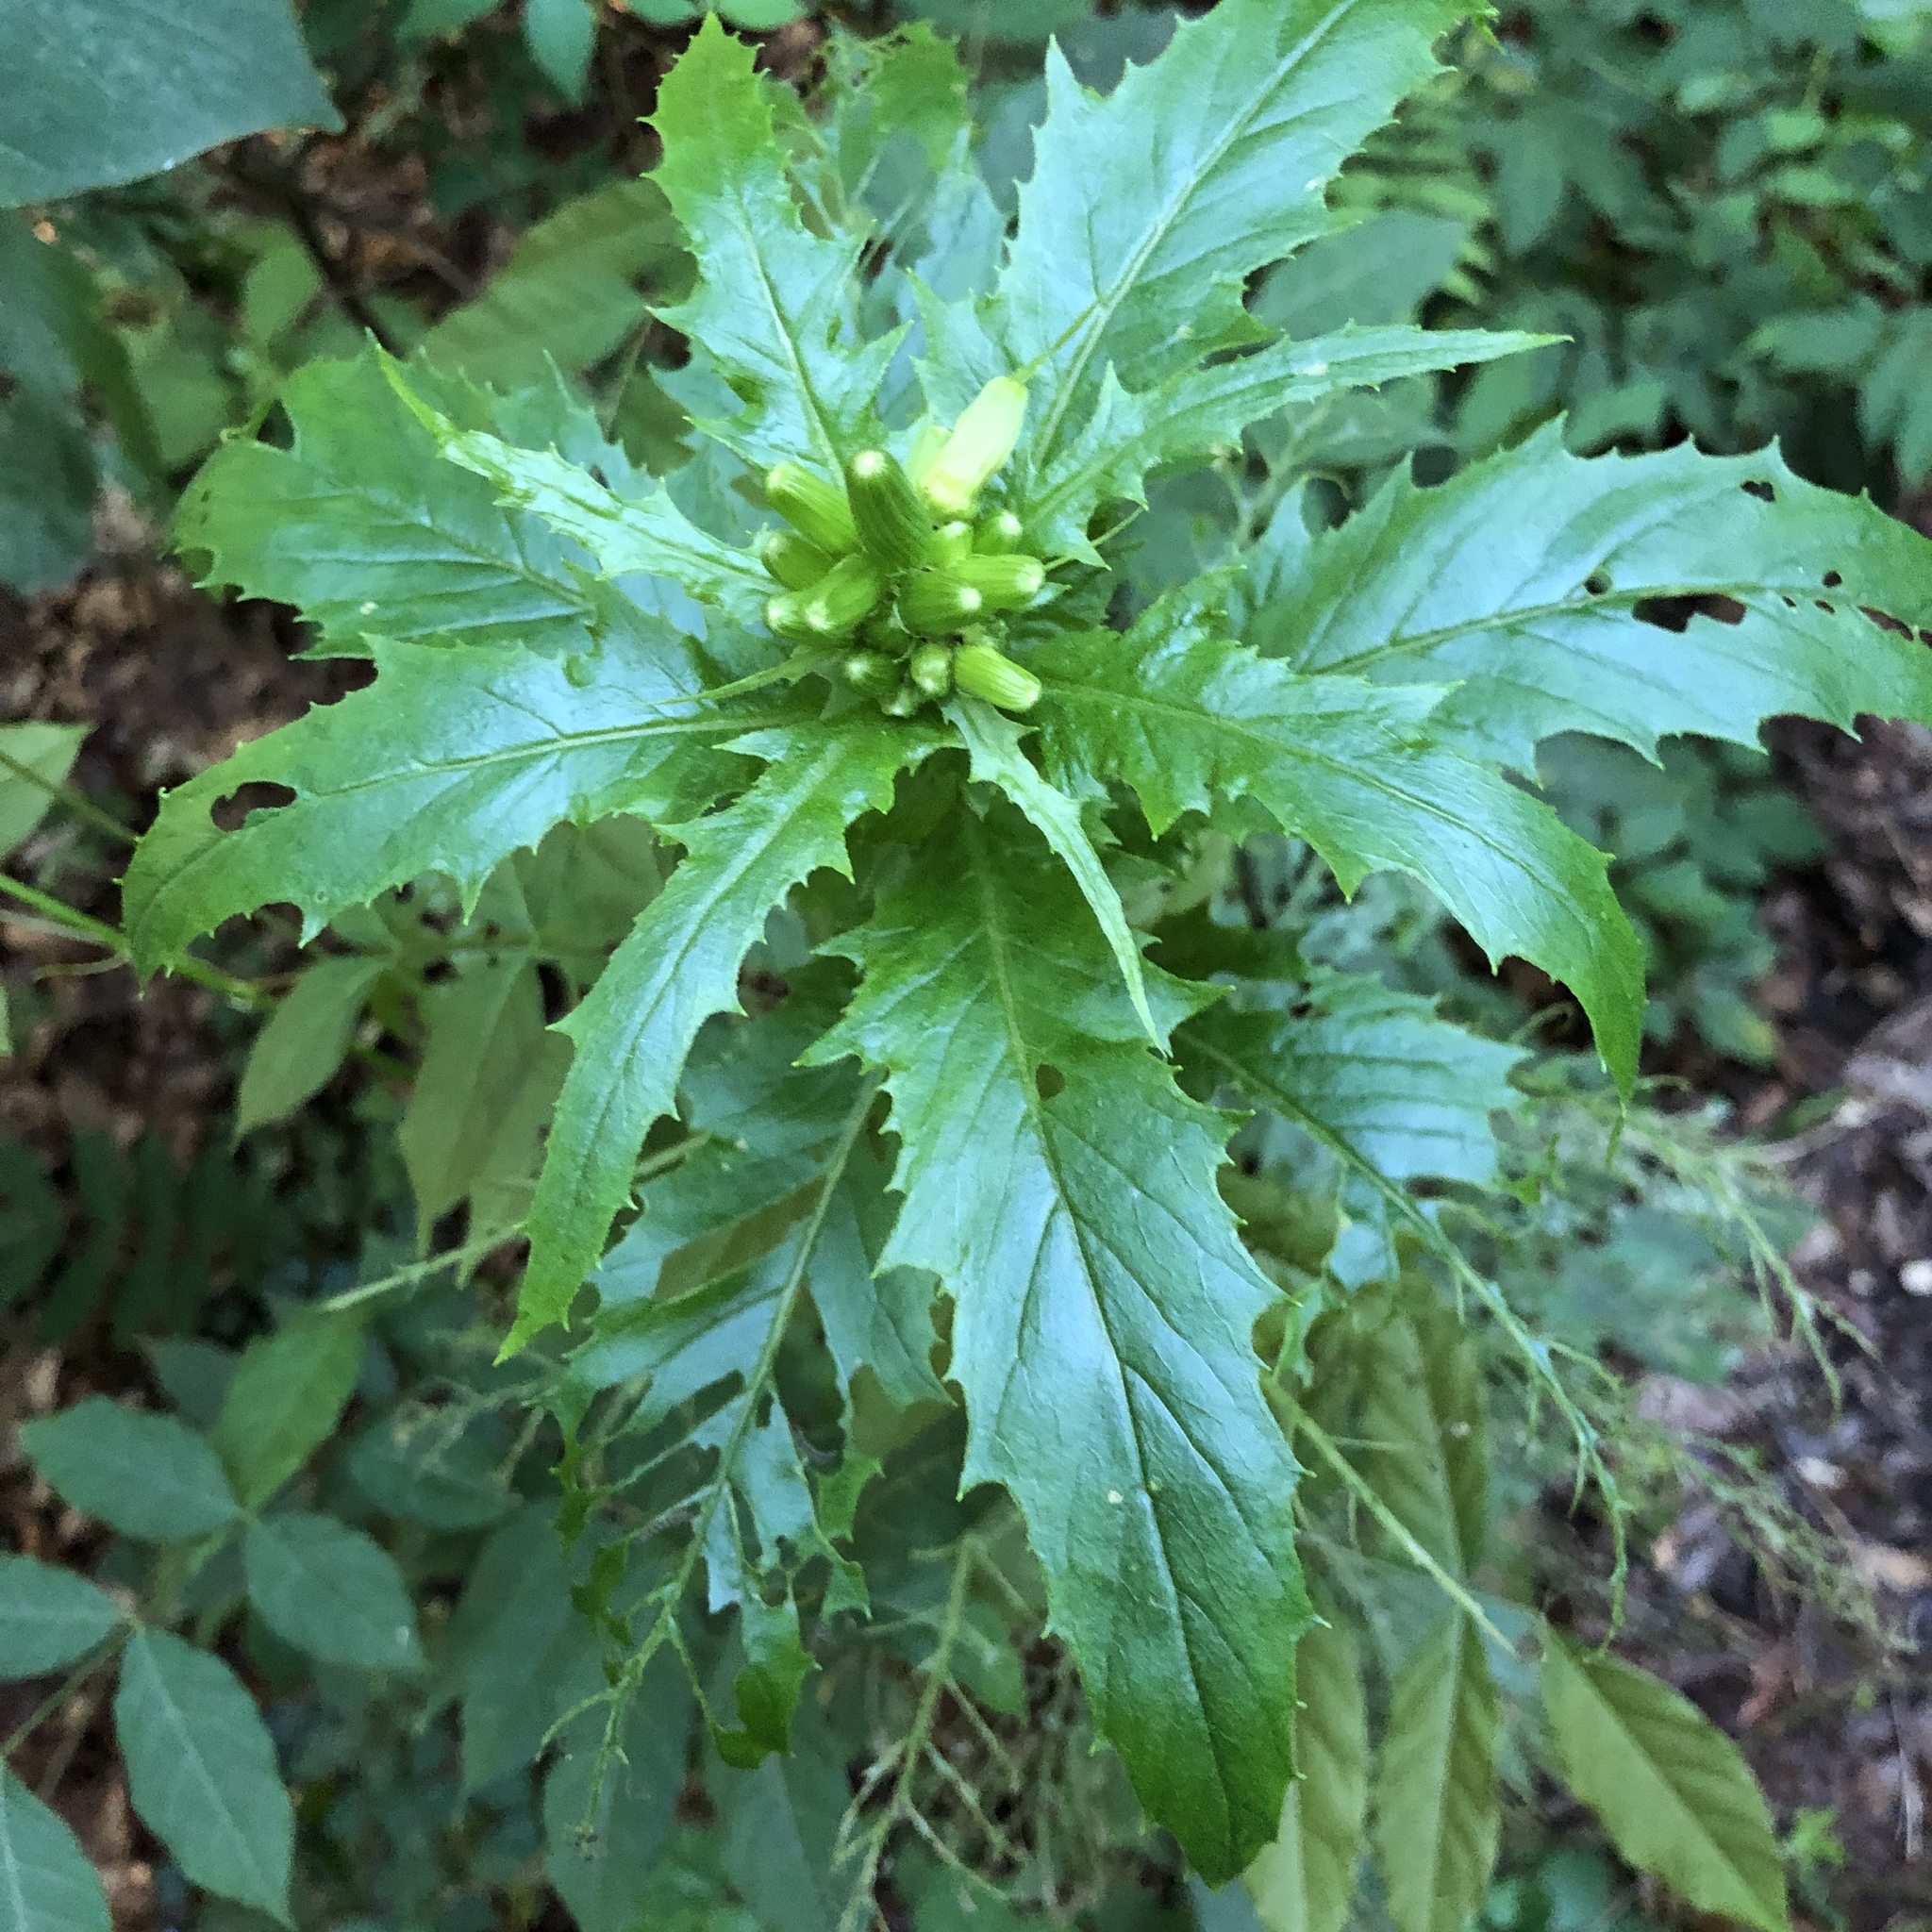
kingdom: Plantae
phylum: Tracheophyta
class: Magnoliopsida
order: Asterales
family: Asteraceae
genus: Erechtites
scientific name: Erechtites hieraciifolius
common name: American burnweed
